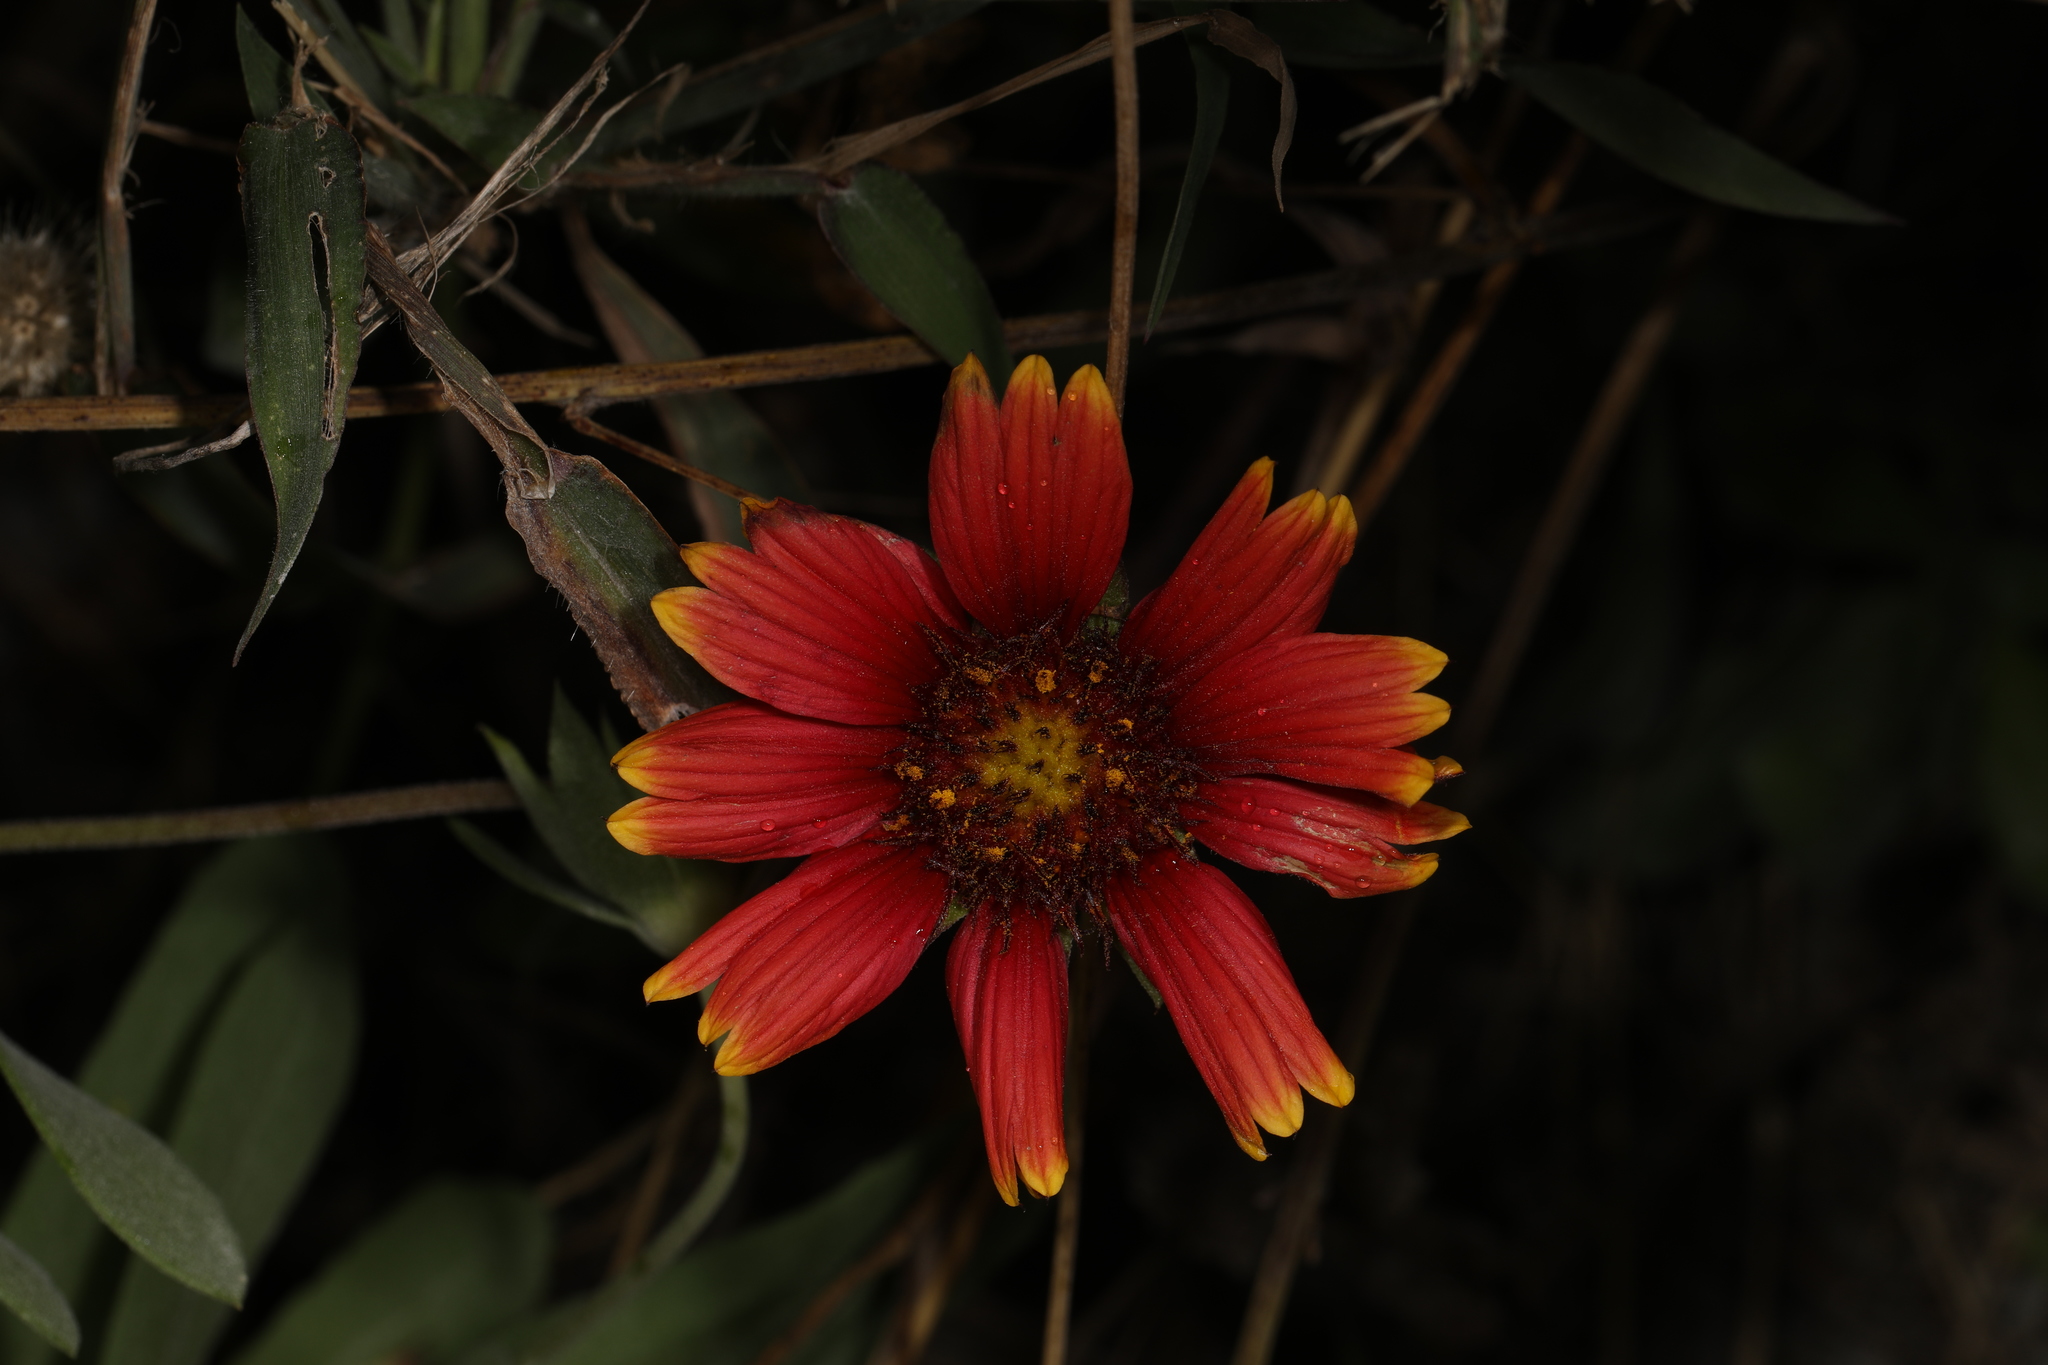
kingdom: Plantae
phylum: Tracheophyta
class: Magnoliopsida
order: Asterales
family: Asteraceae
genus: Gaillardia
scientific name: Gaillardia pulchella
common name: Firewheel
